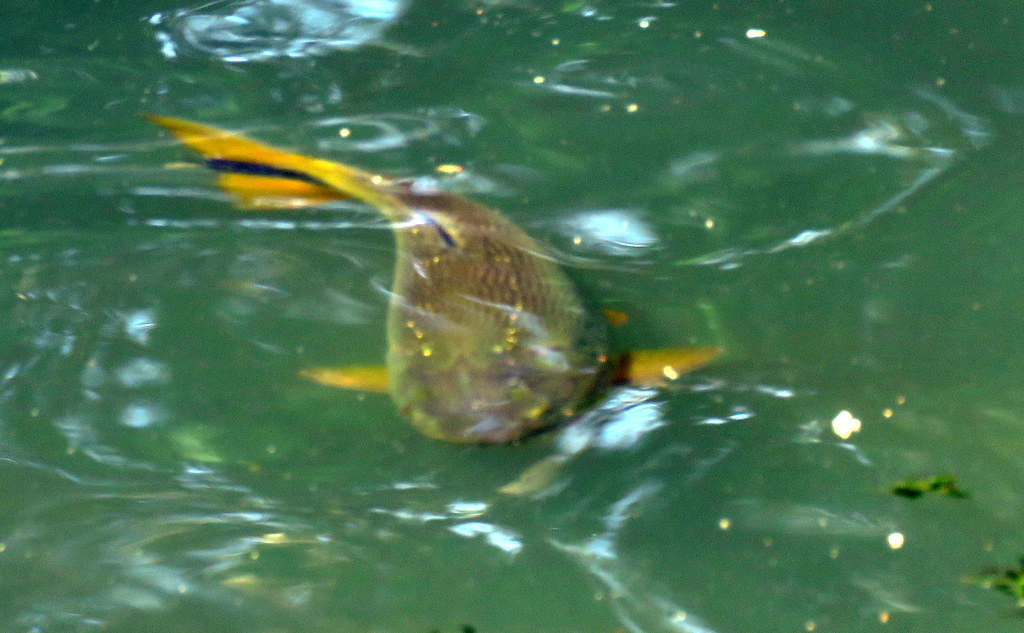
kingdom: Animalia
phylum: Chordata
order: Characiformes
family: Bryconidae
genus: Salminus
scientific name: Salminus brasiliensis
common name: Dorado
